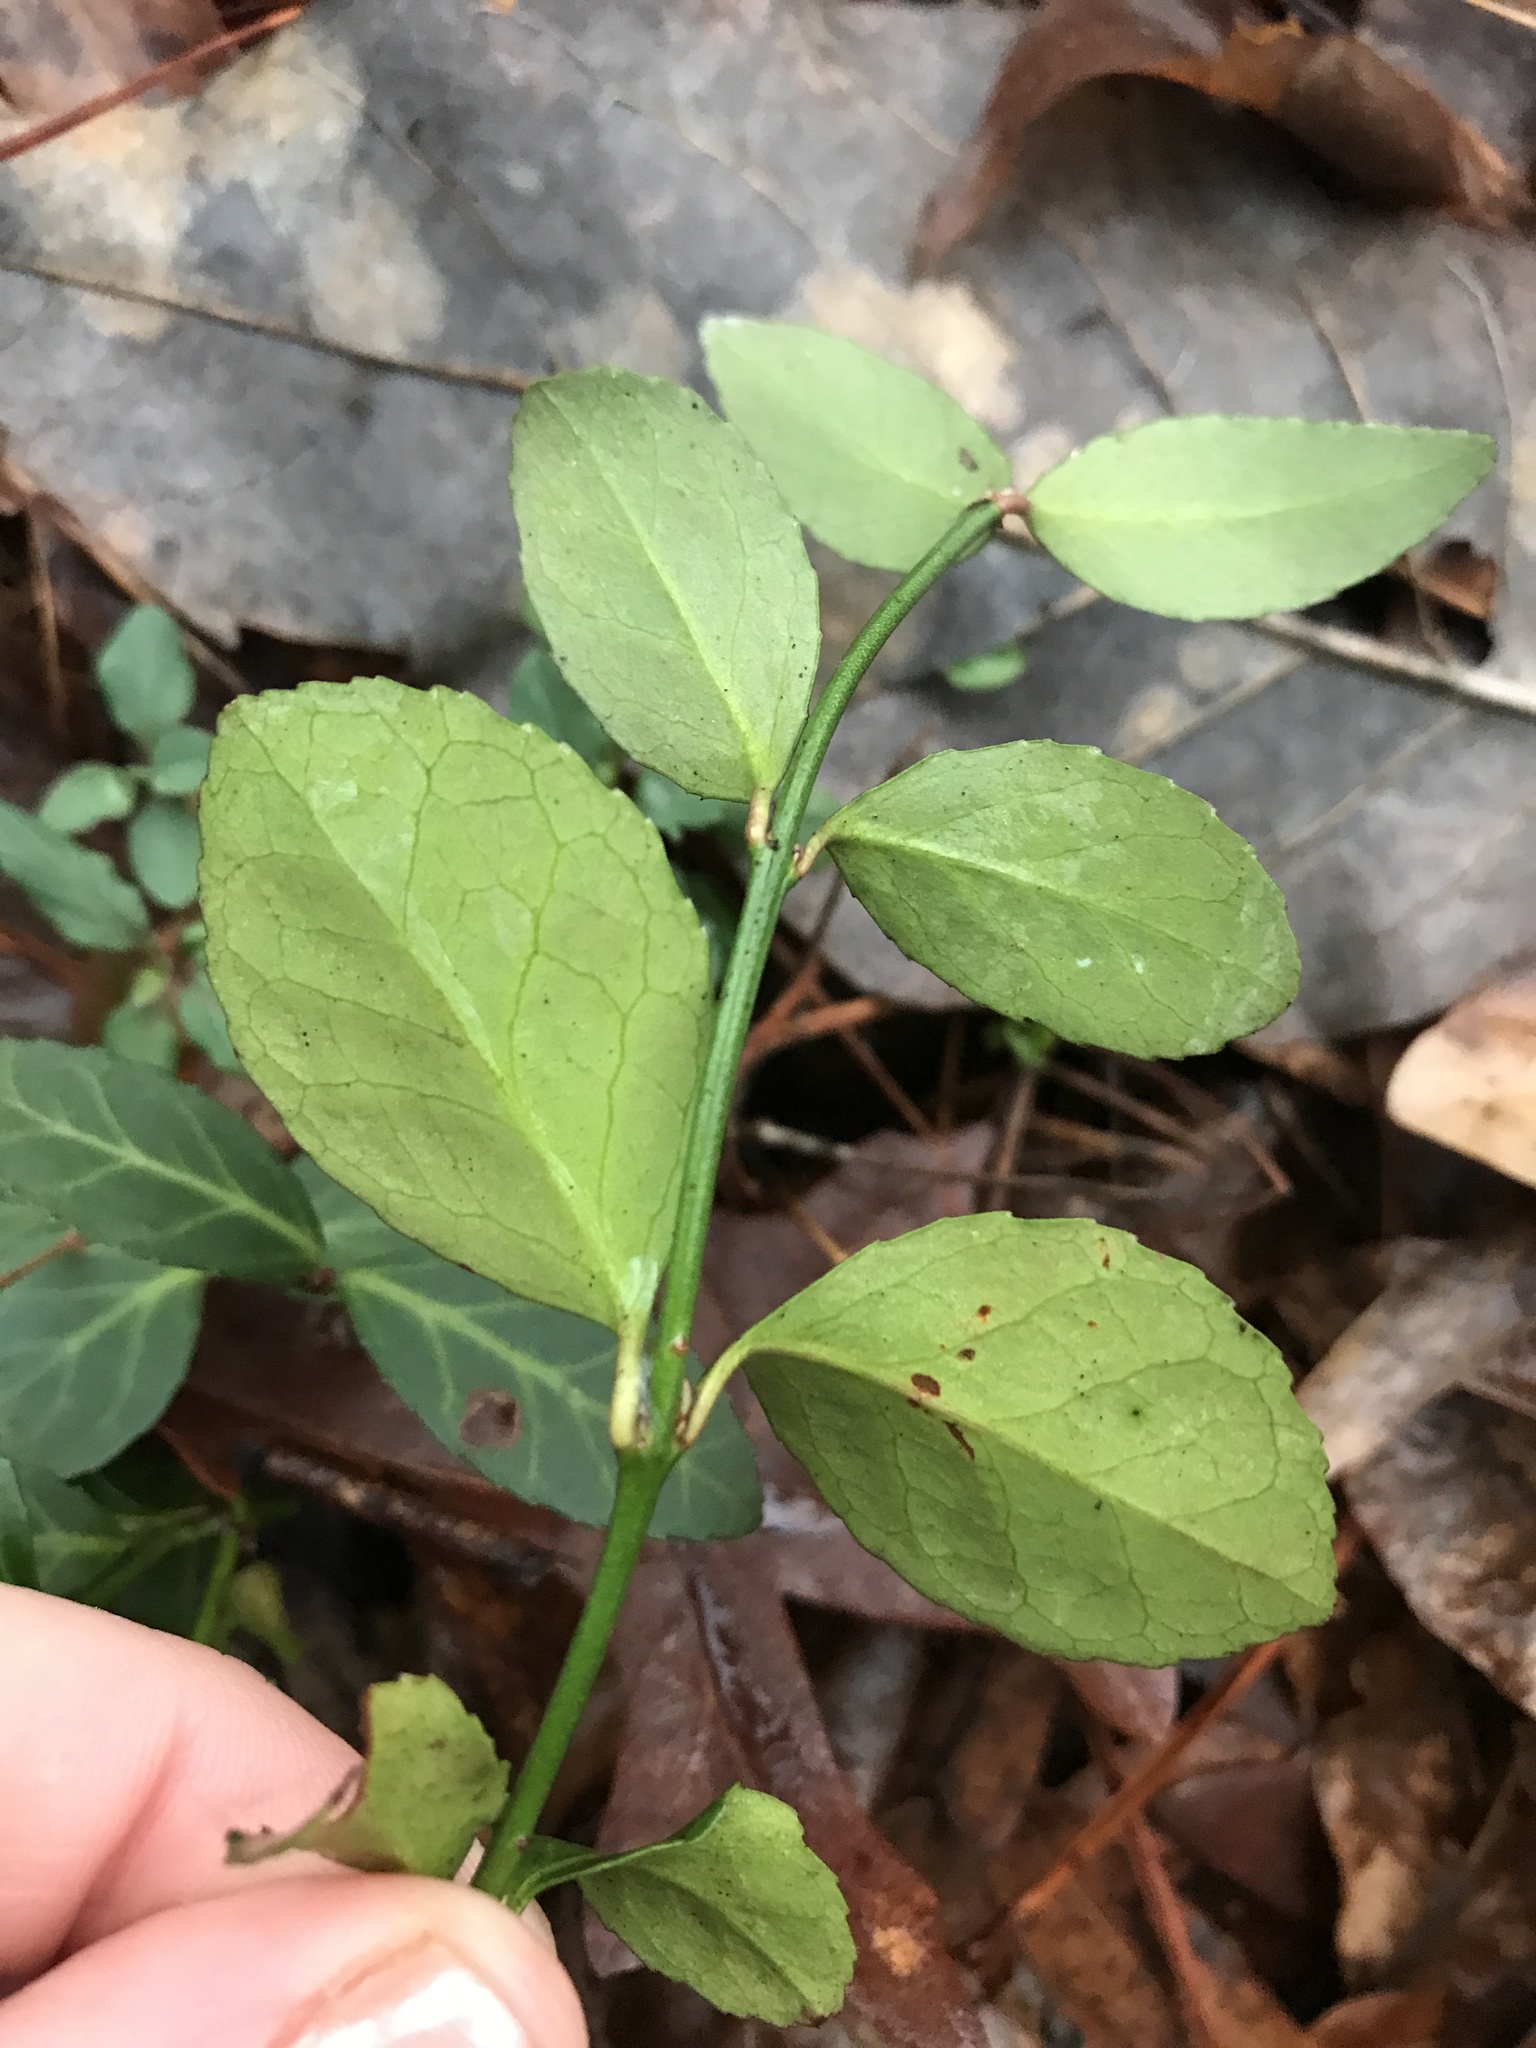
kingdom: Plantae
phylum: Tracheophyta
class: Magnoliopsida
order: Celastrales
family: Celastraceae
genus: Euonymus
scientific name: Euonymus fortunei
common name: Climbing euonymus
